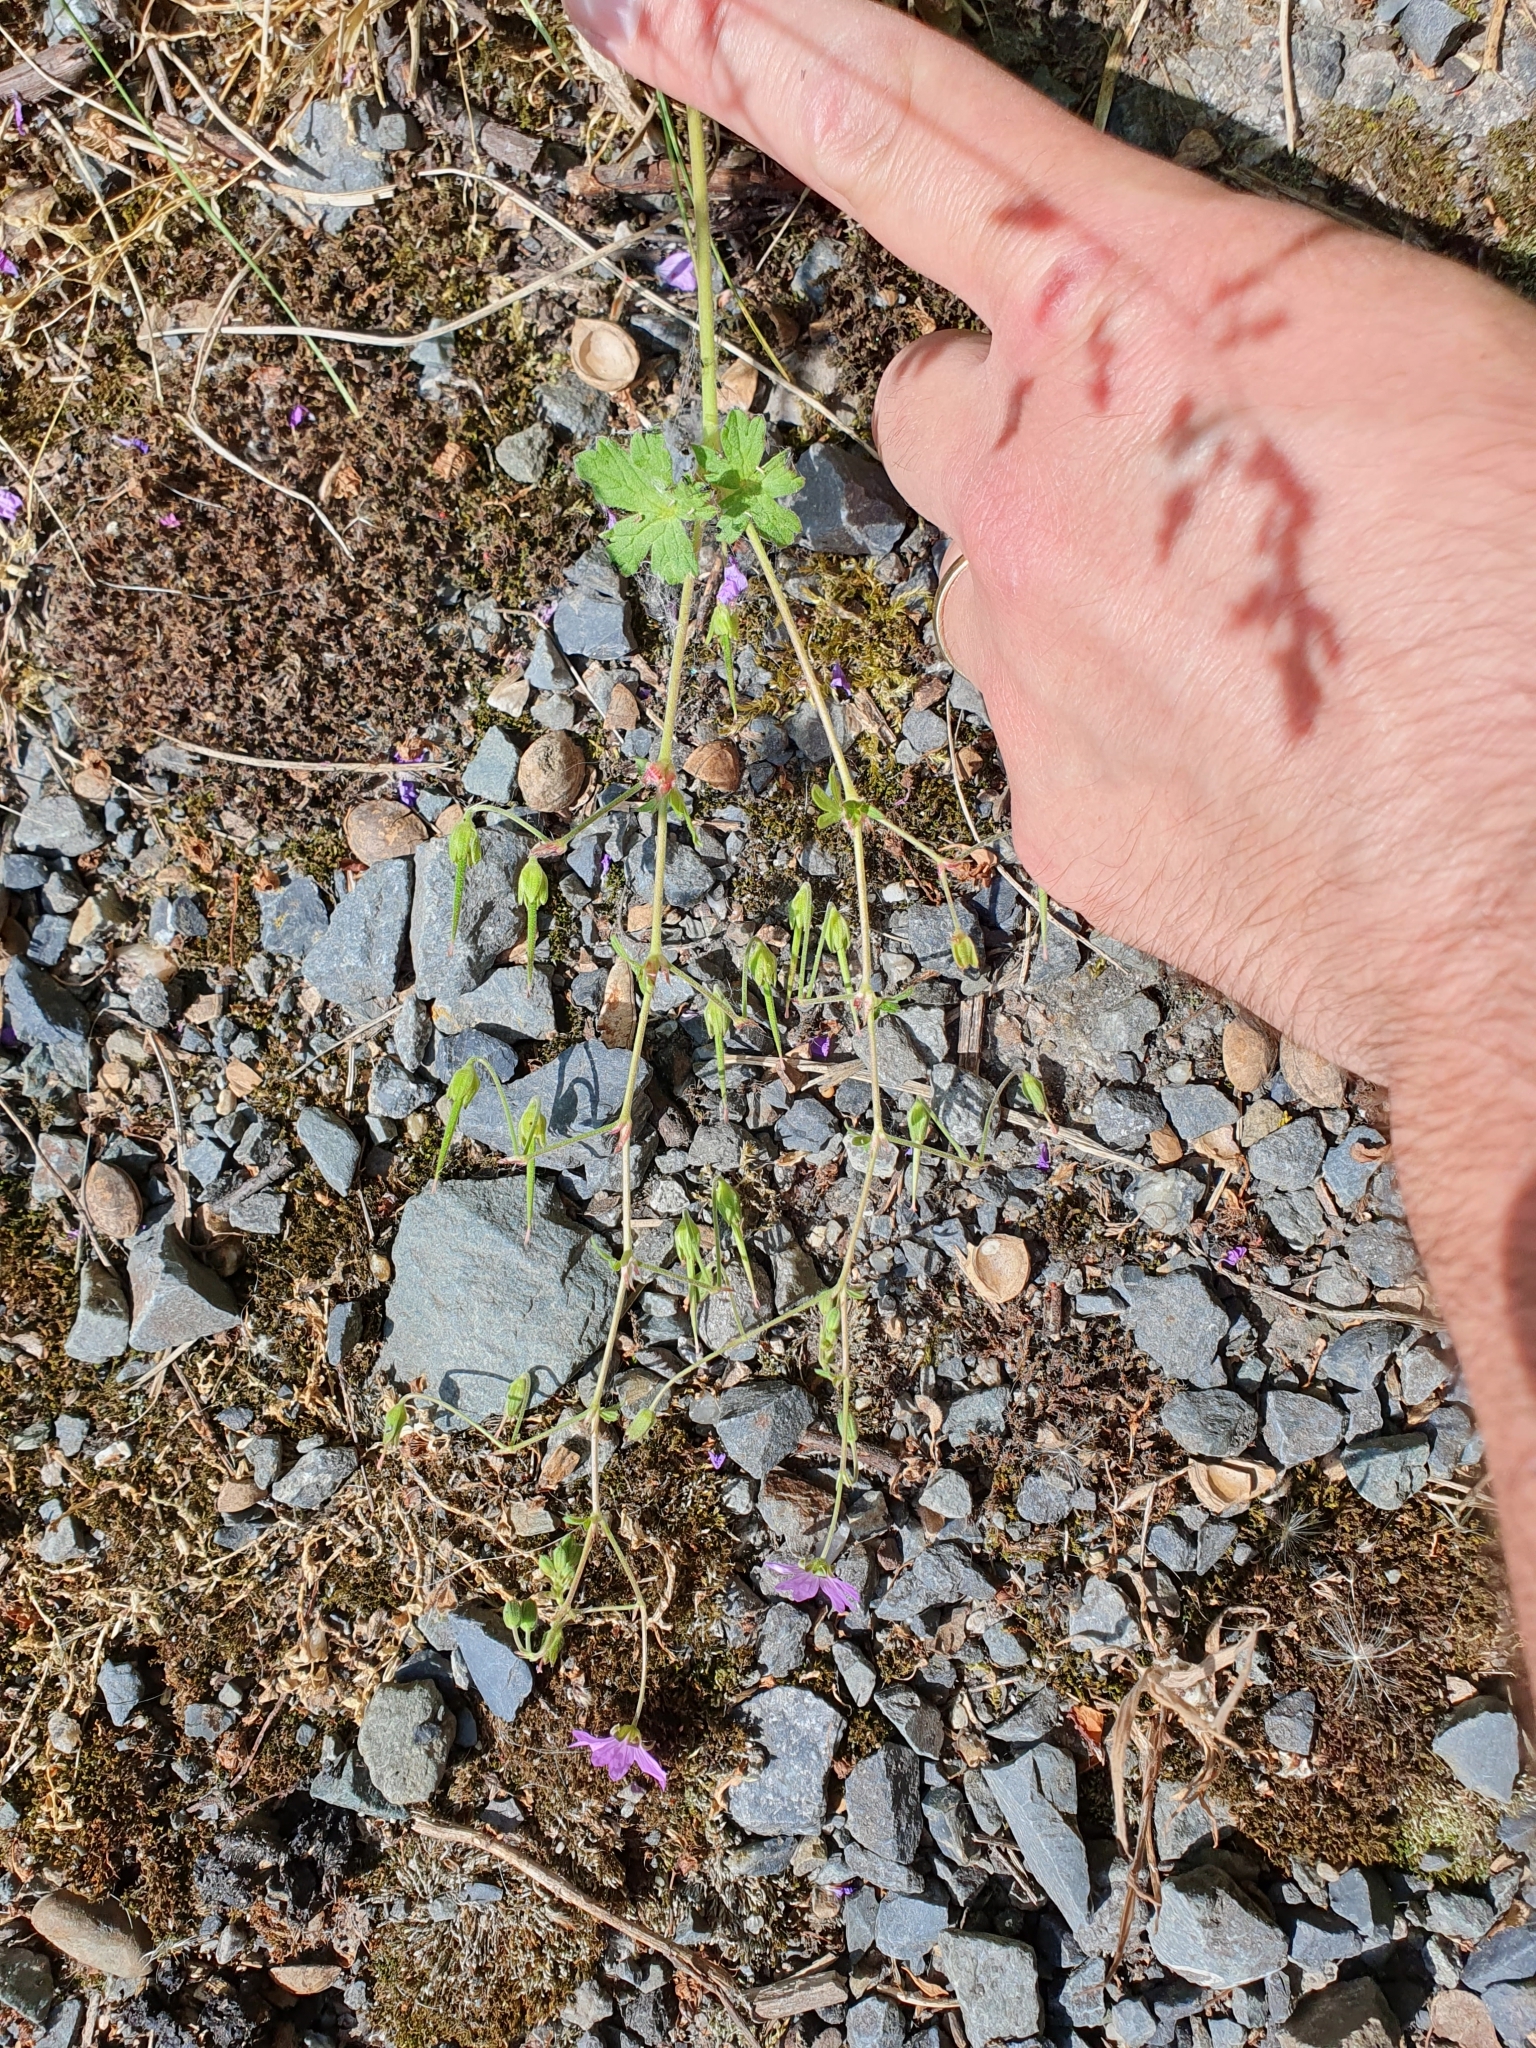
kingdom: Plantae
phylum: Tracheophyta
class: Magnoliopsida
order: Geraniales
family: Geraniaceae
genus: Geranium
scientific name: Geranium pyrenaicum
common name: Hedgerow crane's-bill
